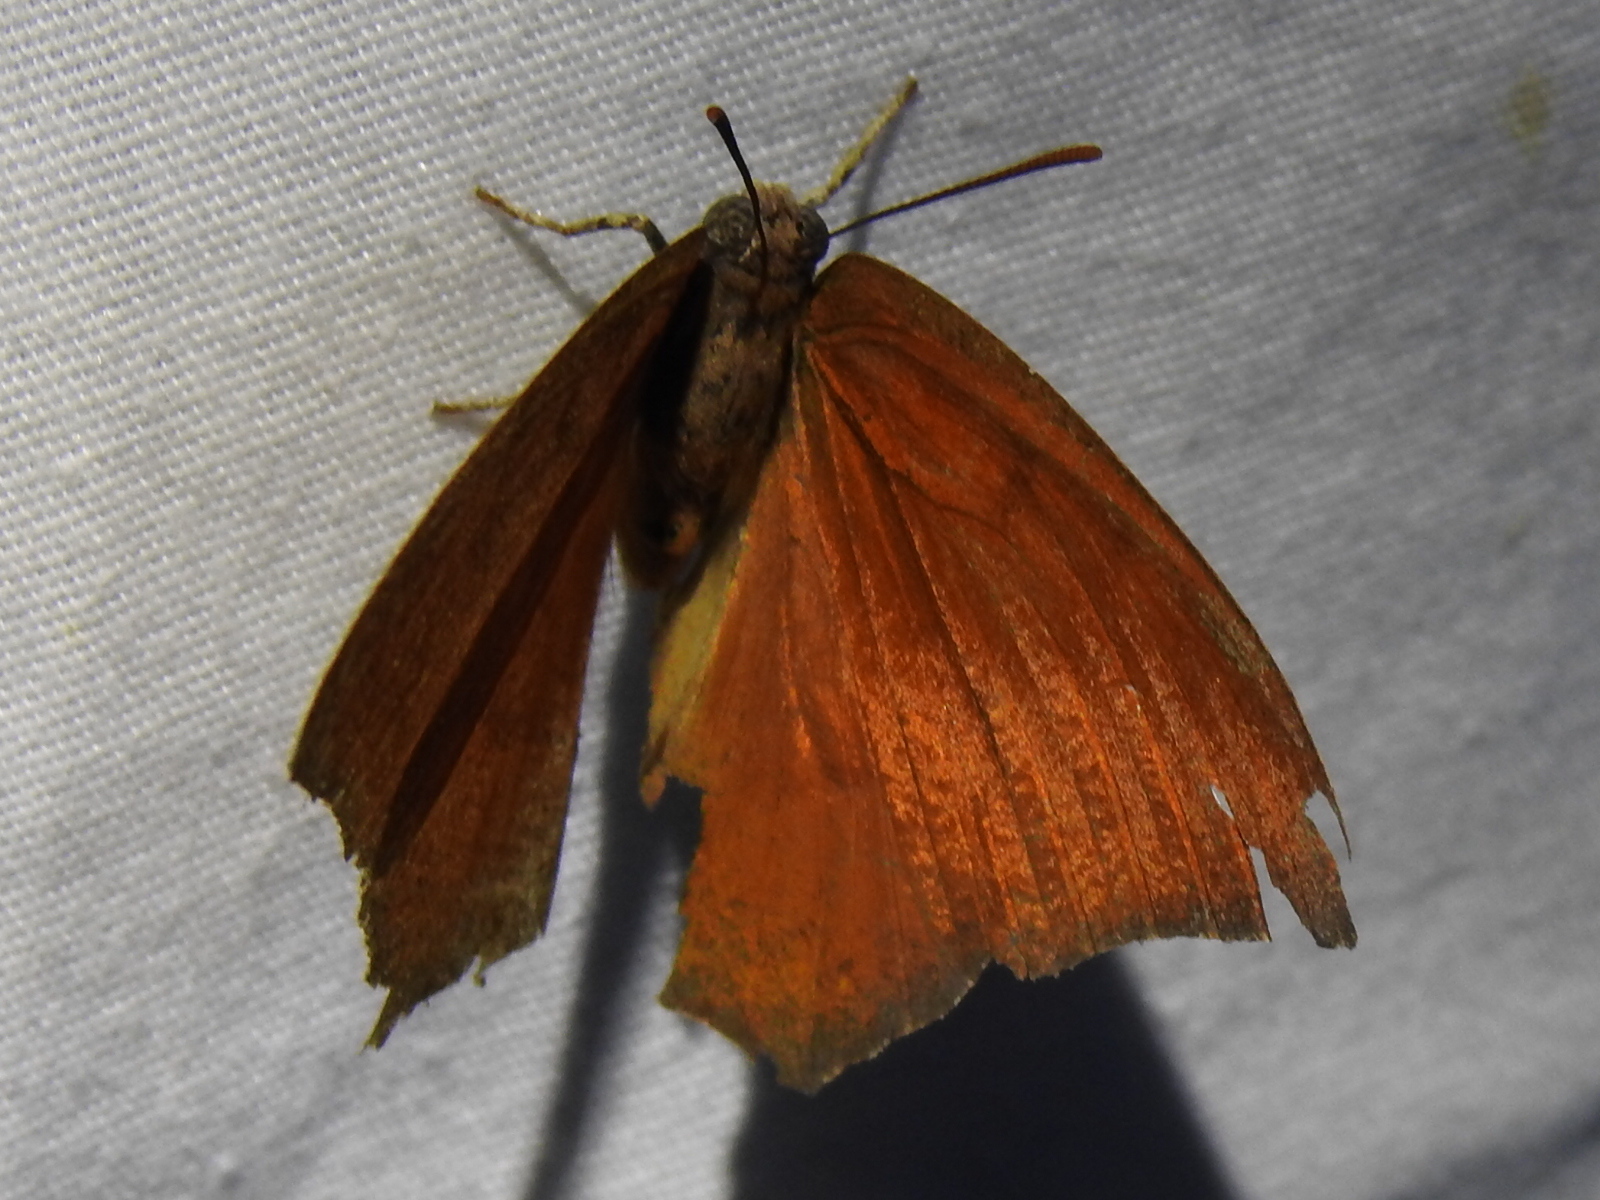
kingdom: Animalia
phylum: Arthropoda
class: Insecta
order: Lepidoptera
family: Nymphalidae
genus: Anaea
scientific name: Anaea andria
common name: Goatweed leafwing
